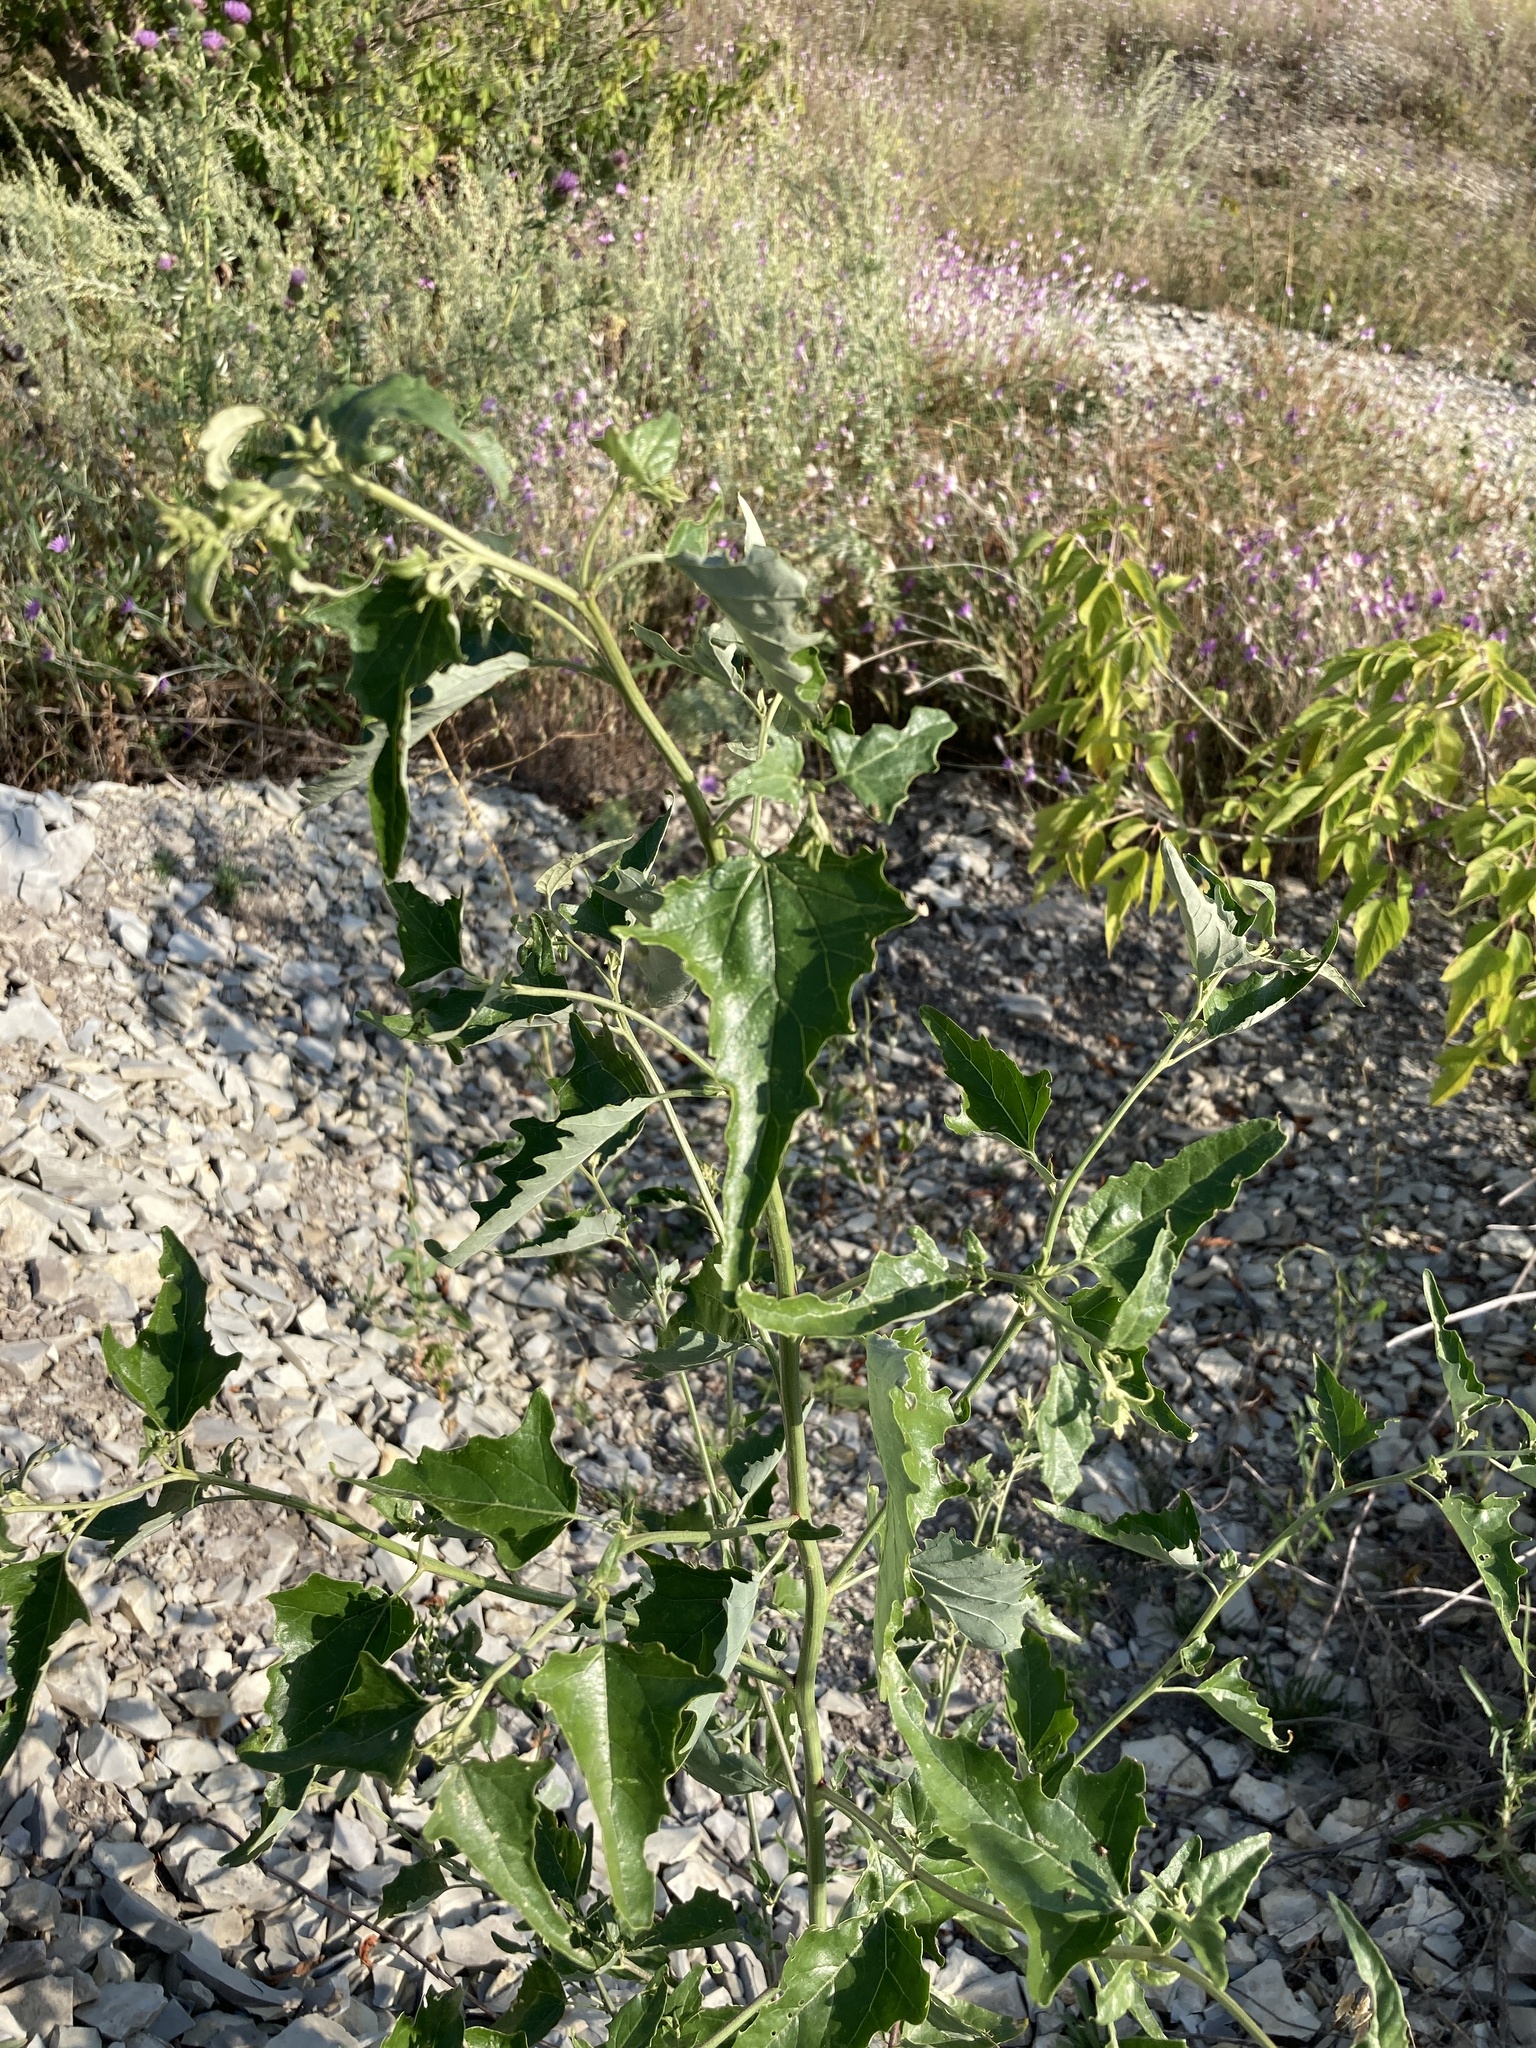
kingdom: Plantae
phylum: Tracheophyta
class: Magnoliopsida
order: Caryophyllales
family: Amaranthaceae
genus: Atriplex
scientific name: Atriplex sagittata
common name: Purple orache
